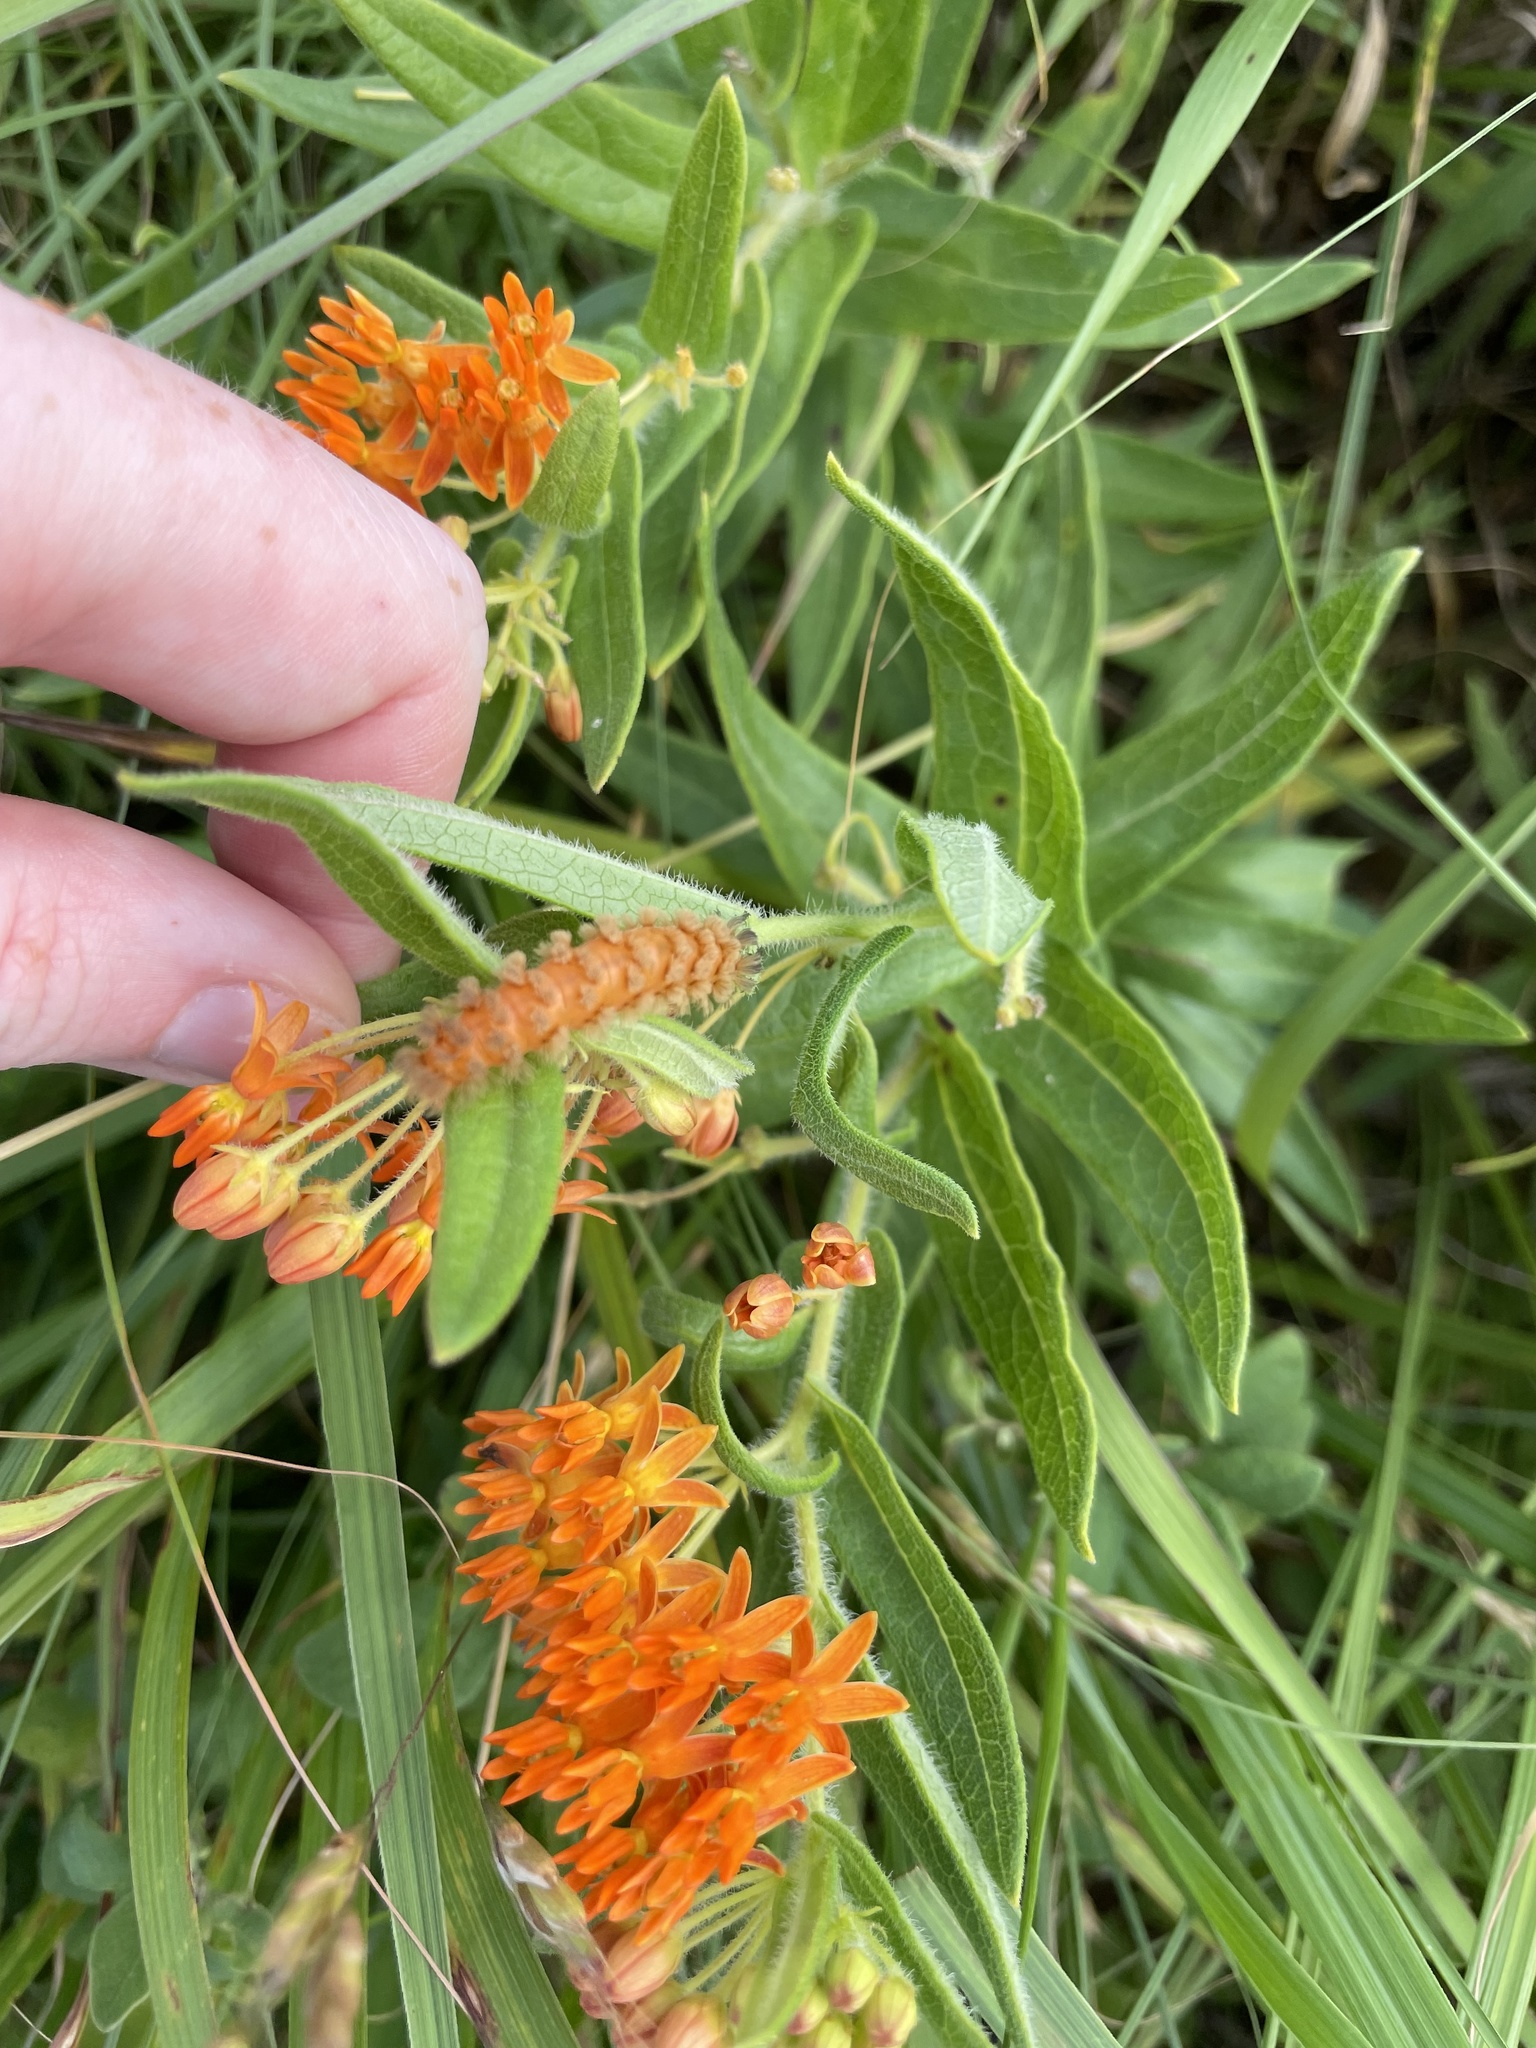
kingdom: Animalia
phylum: Arthropoda
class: Insecta
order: Lepidoptera
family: Erebidae
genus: Cycnia
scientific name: Cycnia collaris
